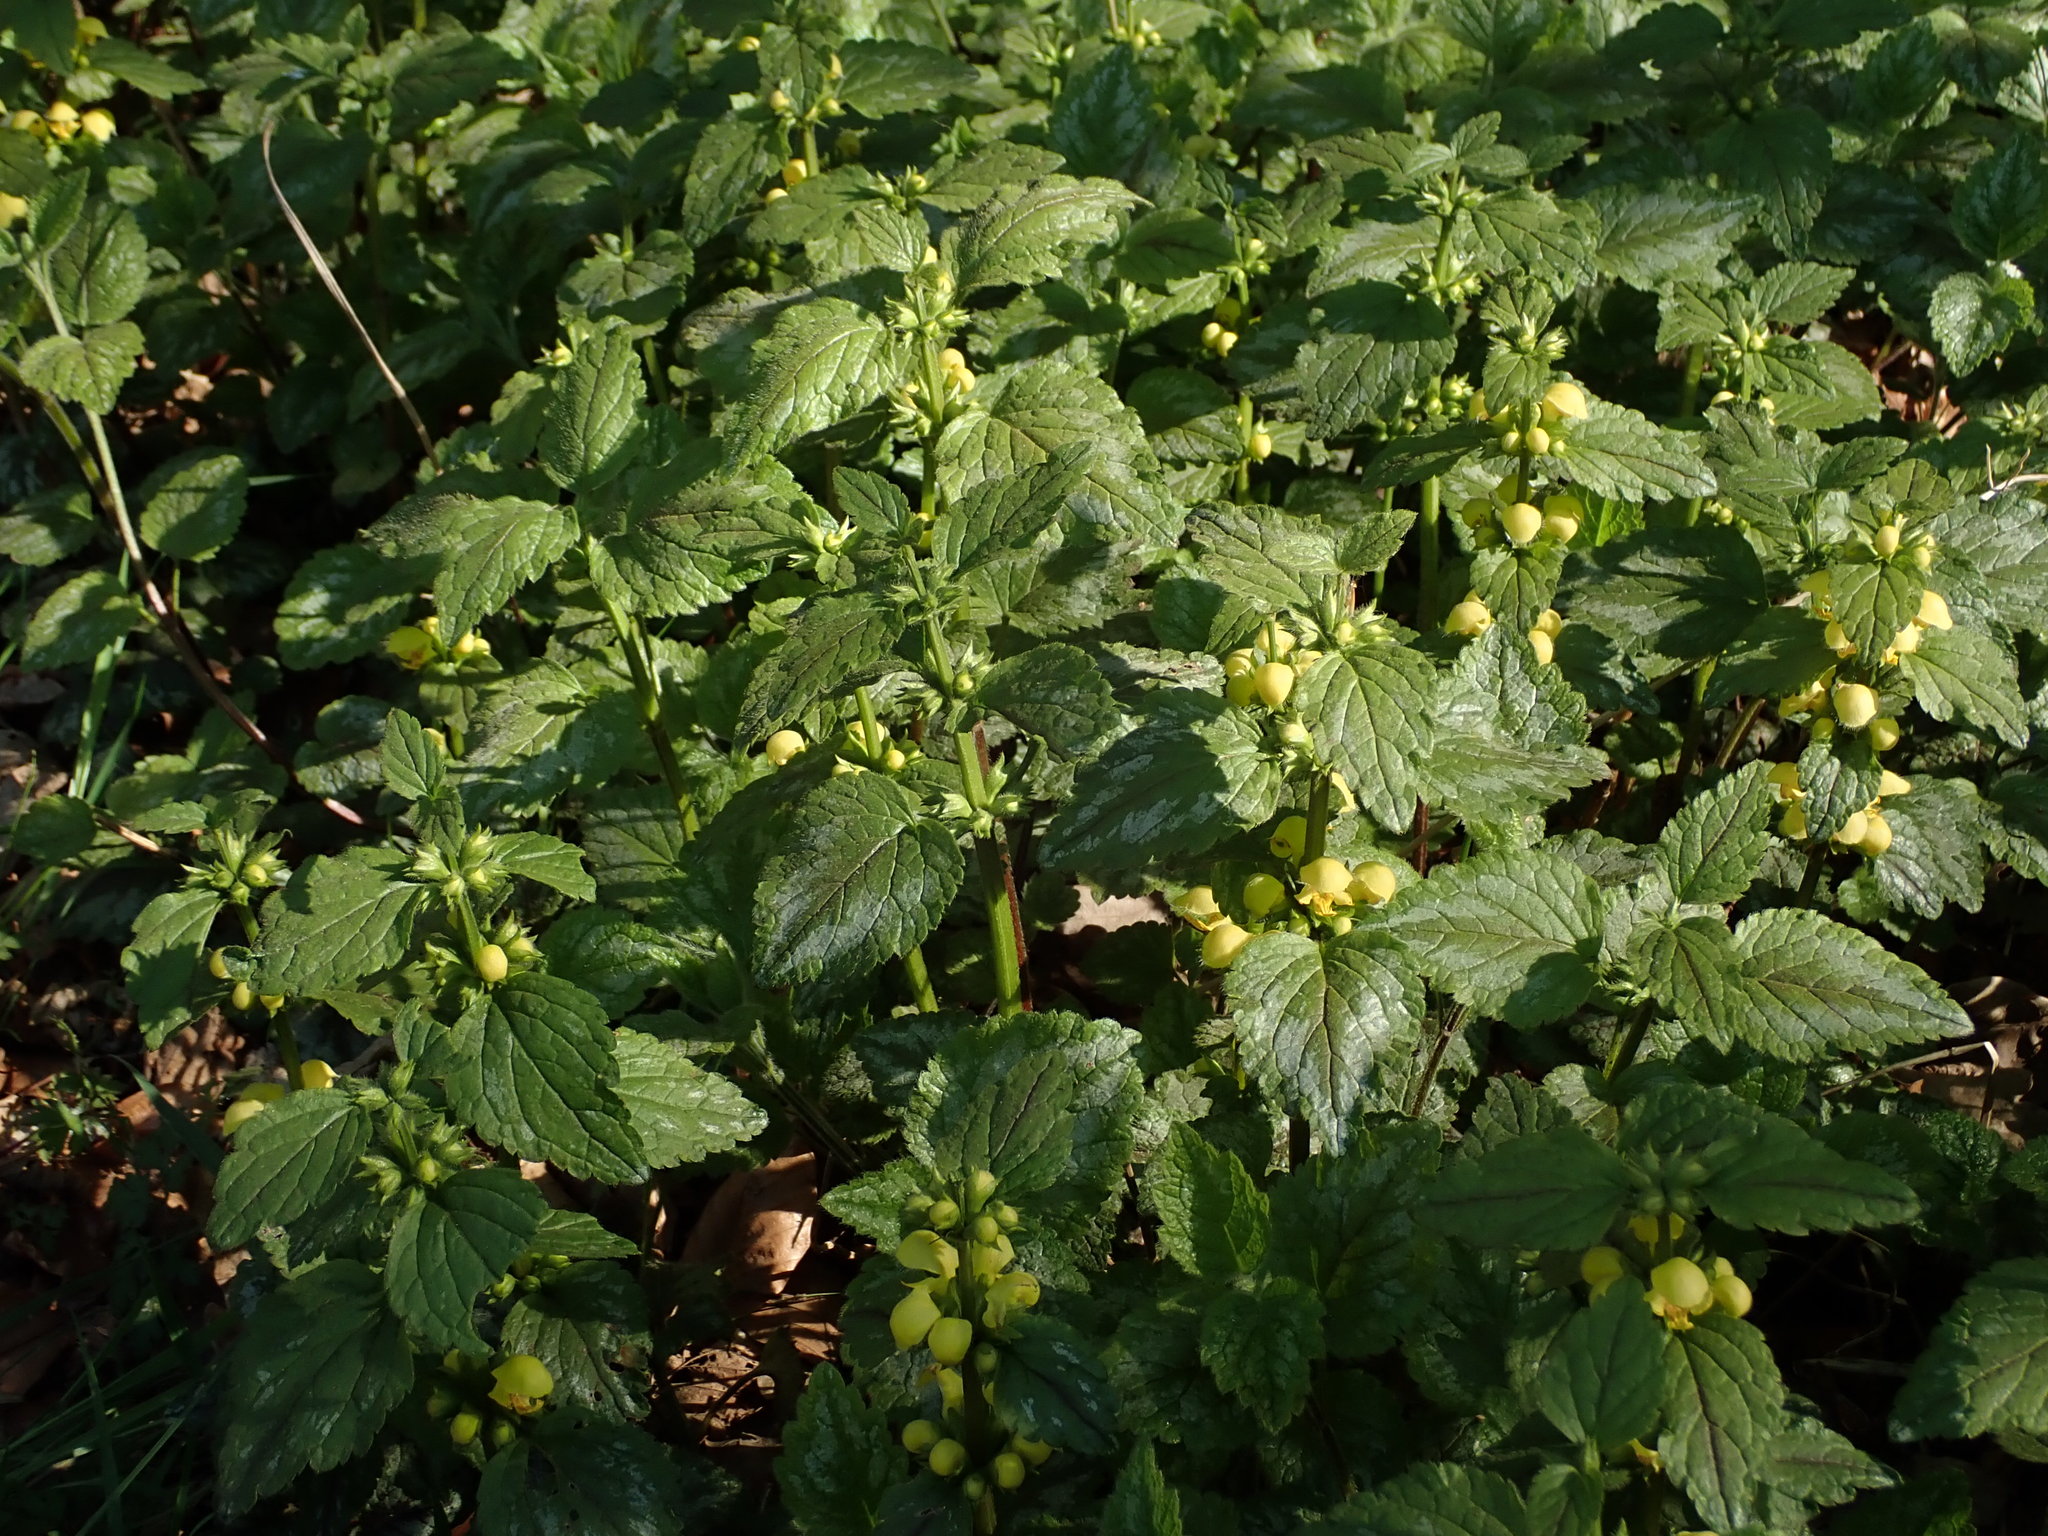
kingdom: Plantae
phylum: Tracheophyta
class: Magnoliopsida
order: Lamiales
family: Lamiaceae
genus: Lamium
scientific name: Lamium galeobdolon
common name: Yellow archangel
